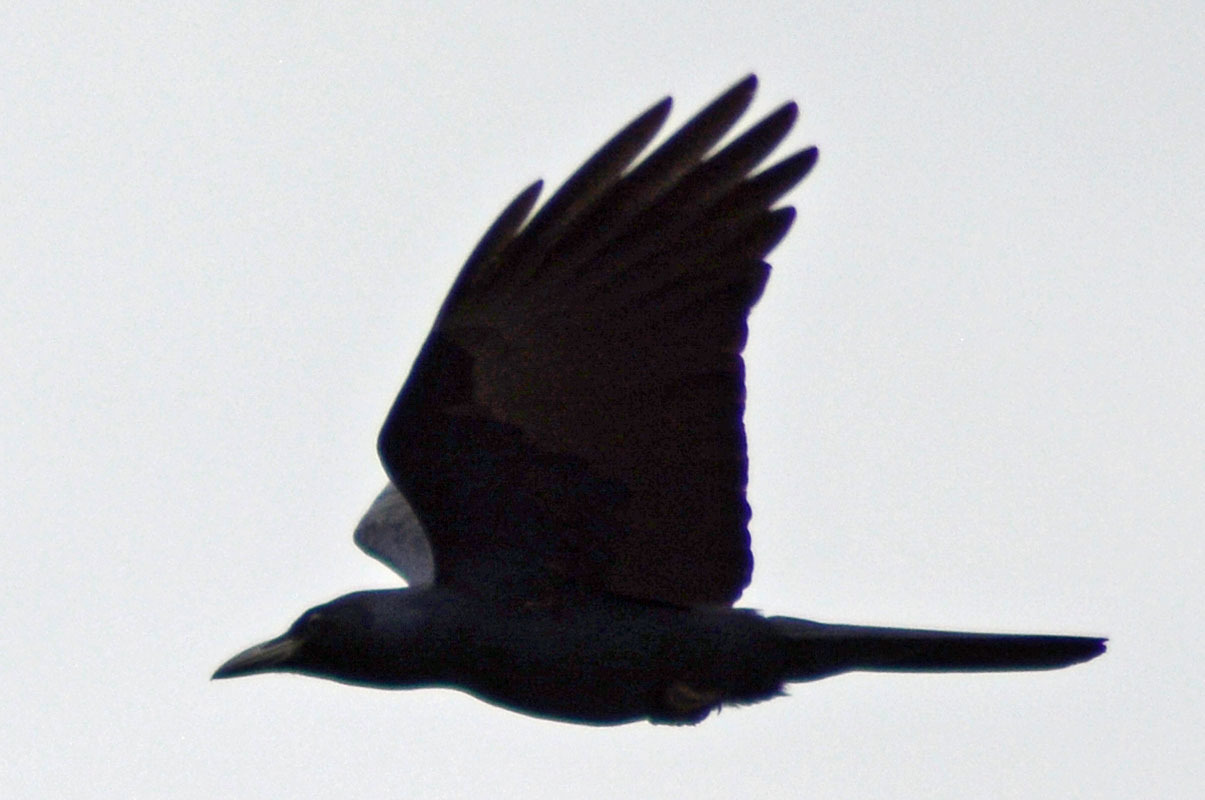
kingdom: Animalia
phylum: Chordata
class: Aves
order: Passeriformes
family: Corvidae
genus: Corvus
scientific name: Corvus sinaloae
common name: Sinaloa crow
